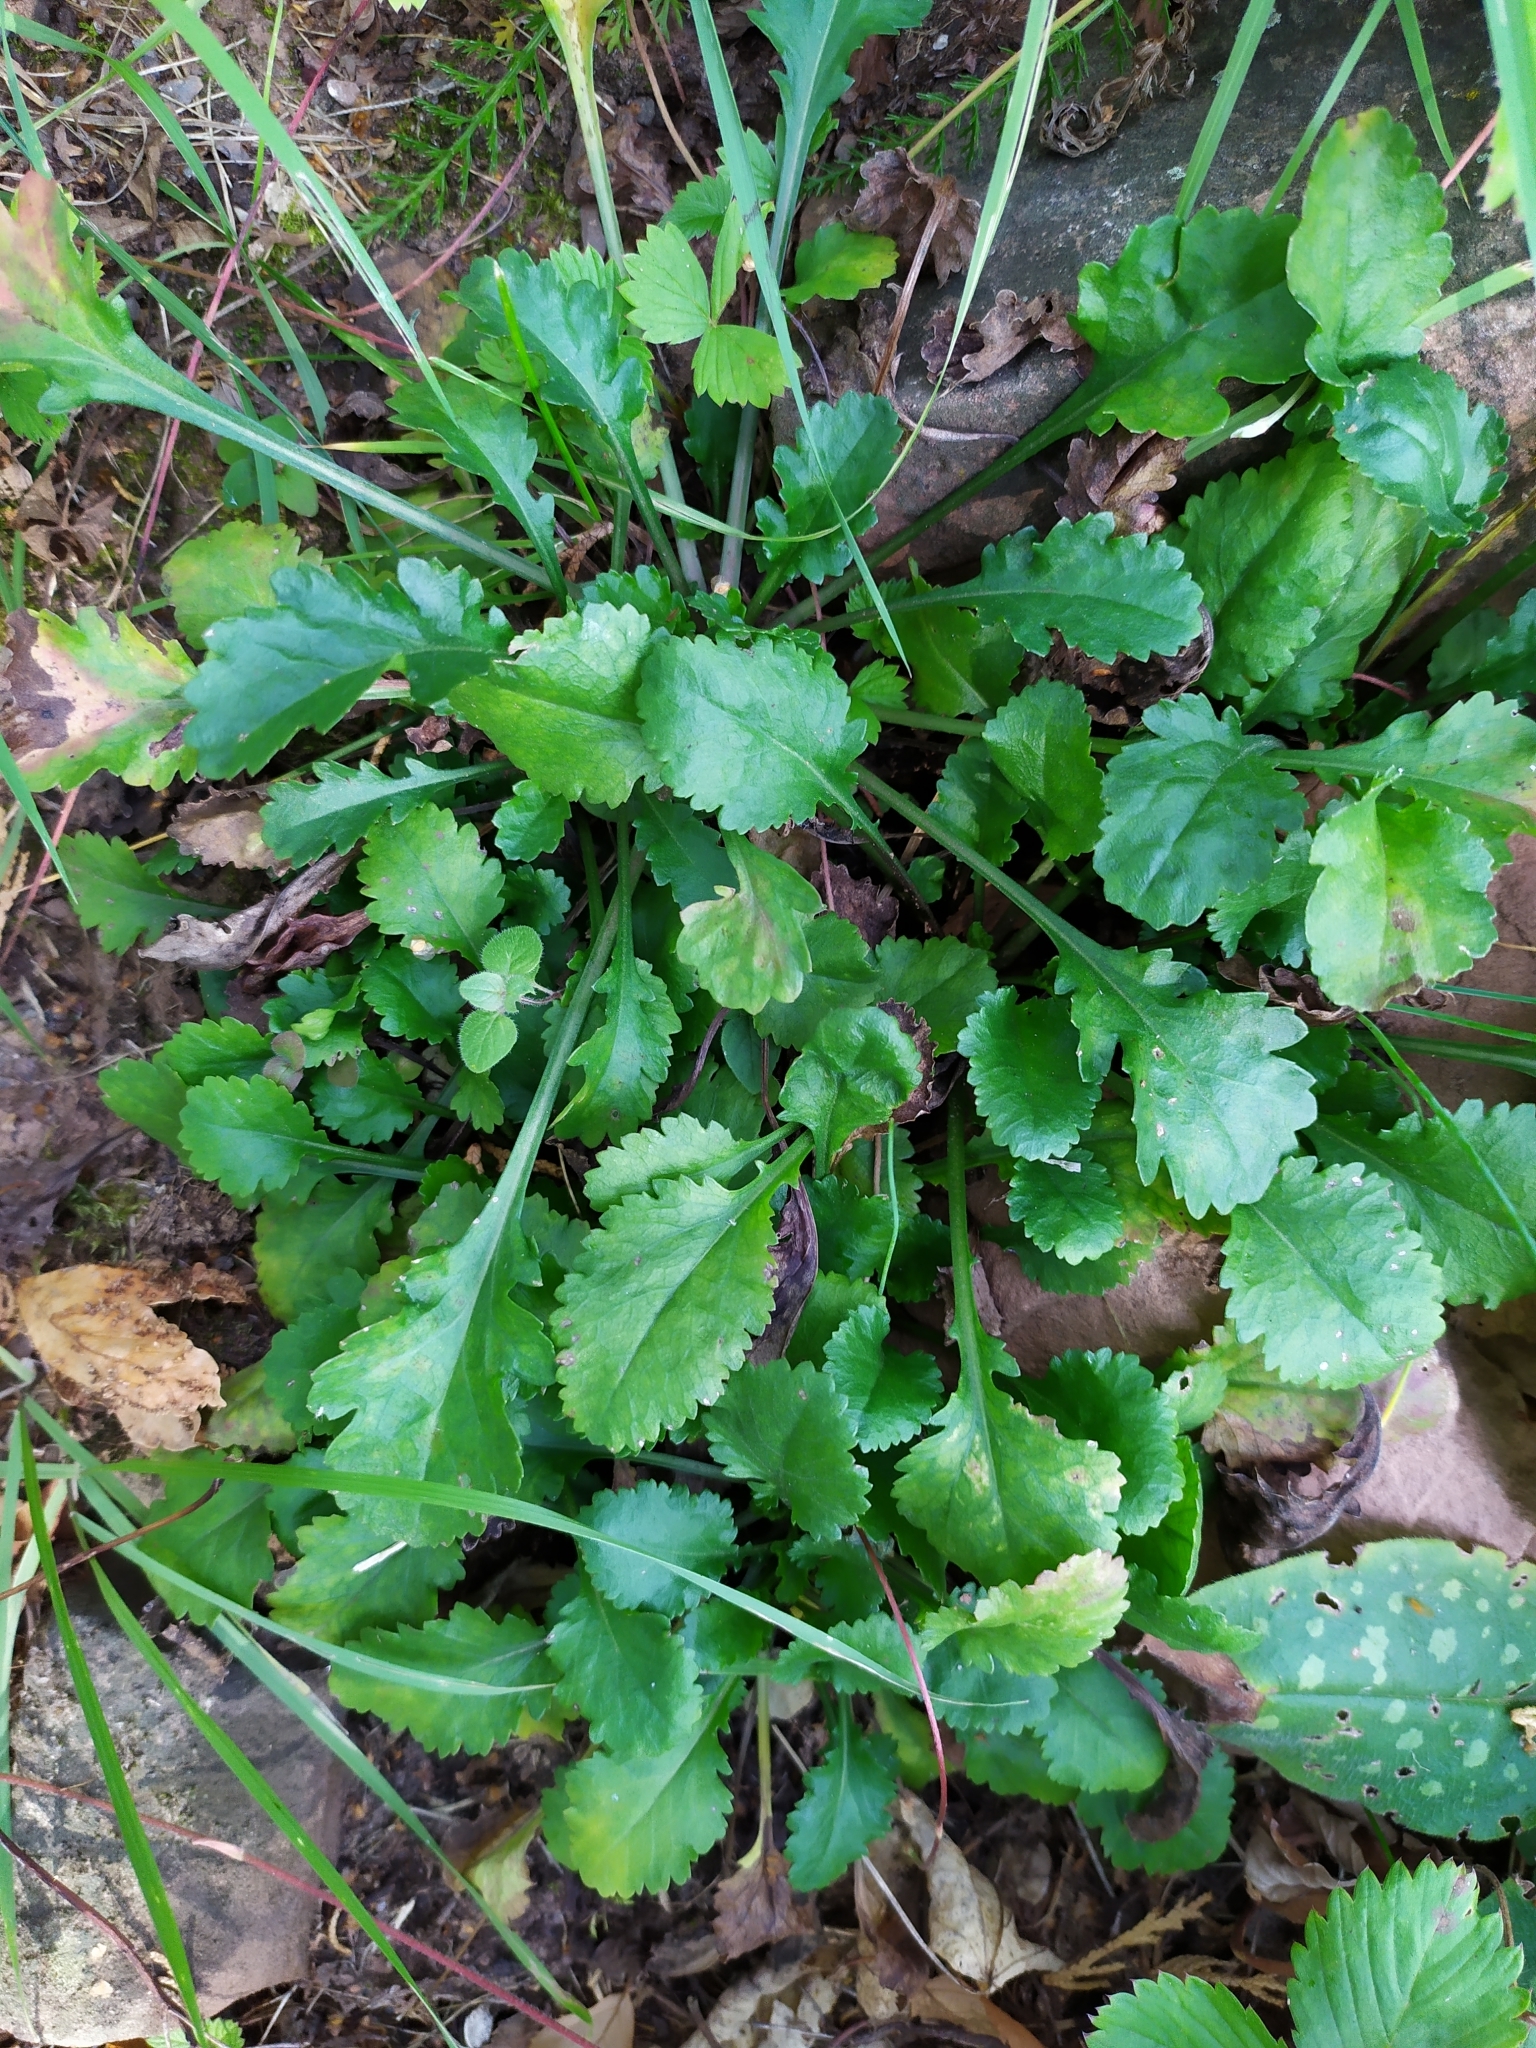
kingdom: Plantae
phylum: Tracheophyta
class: Magnoliopsida
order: Asterales
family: Asteraceae
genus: Erigeron
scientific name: Erigeron annuus
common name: Tall fleabane
